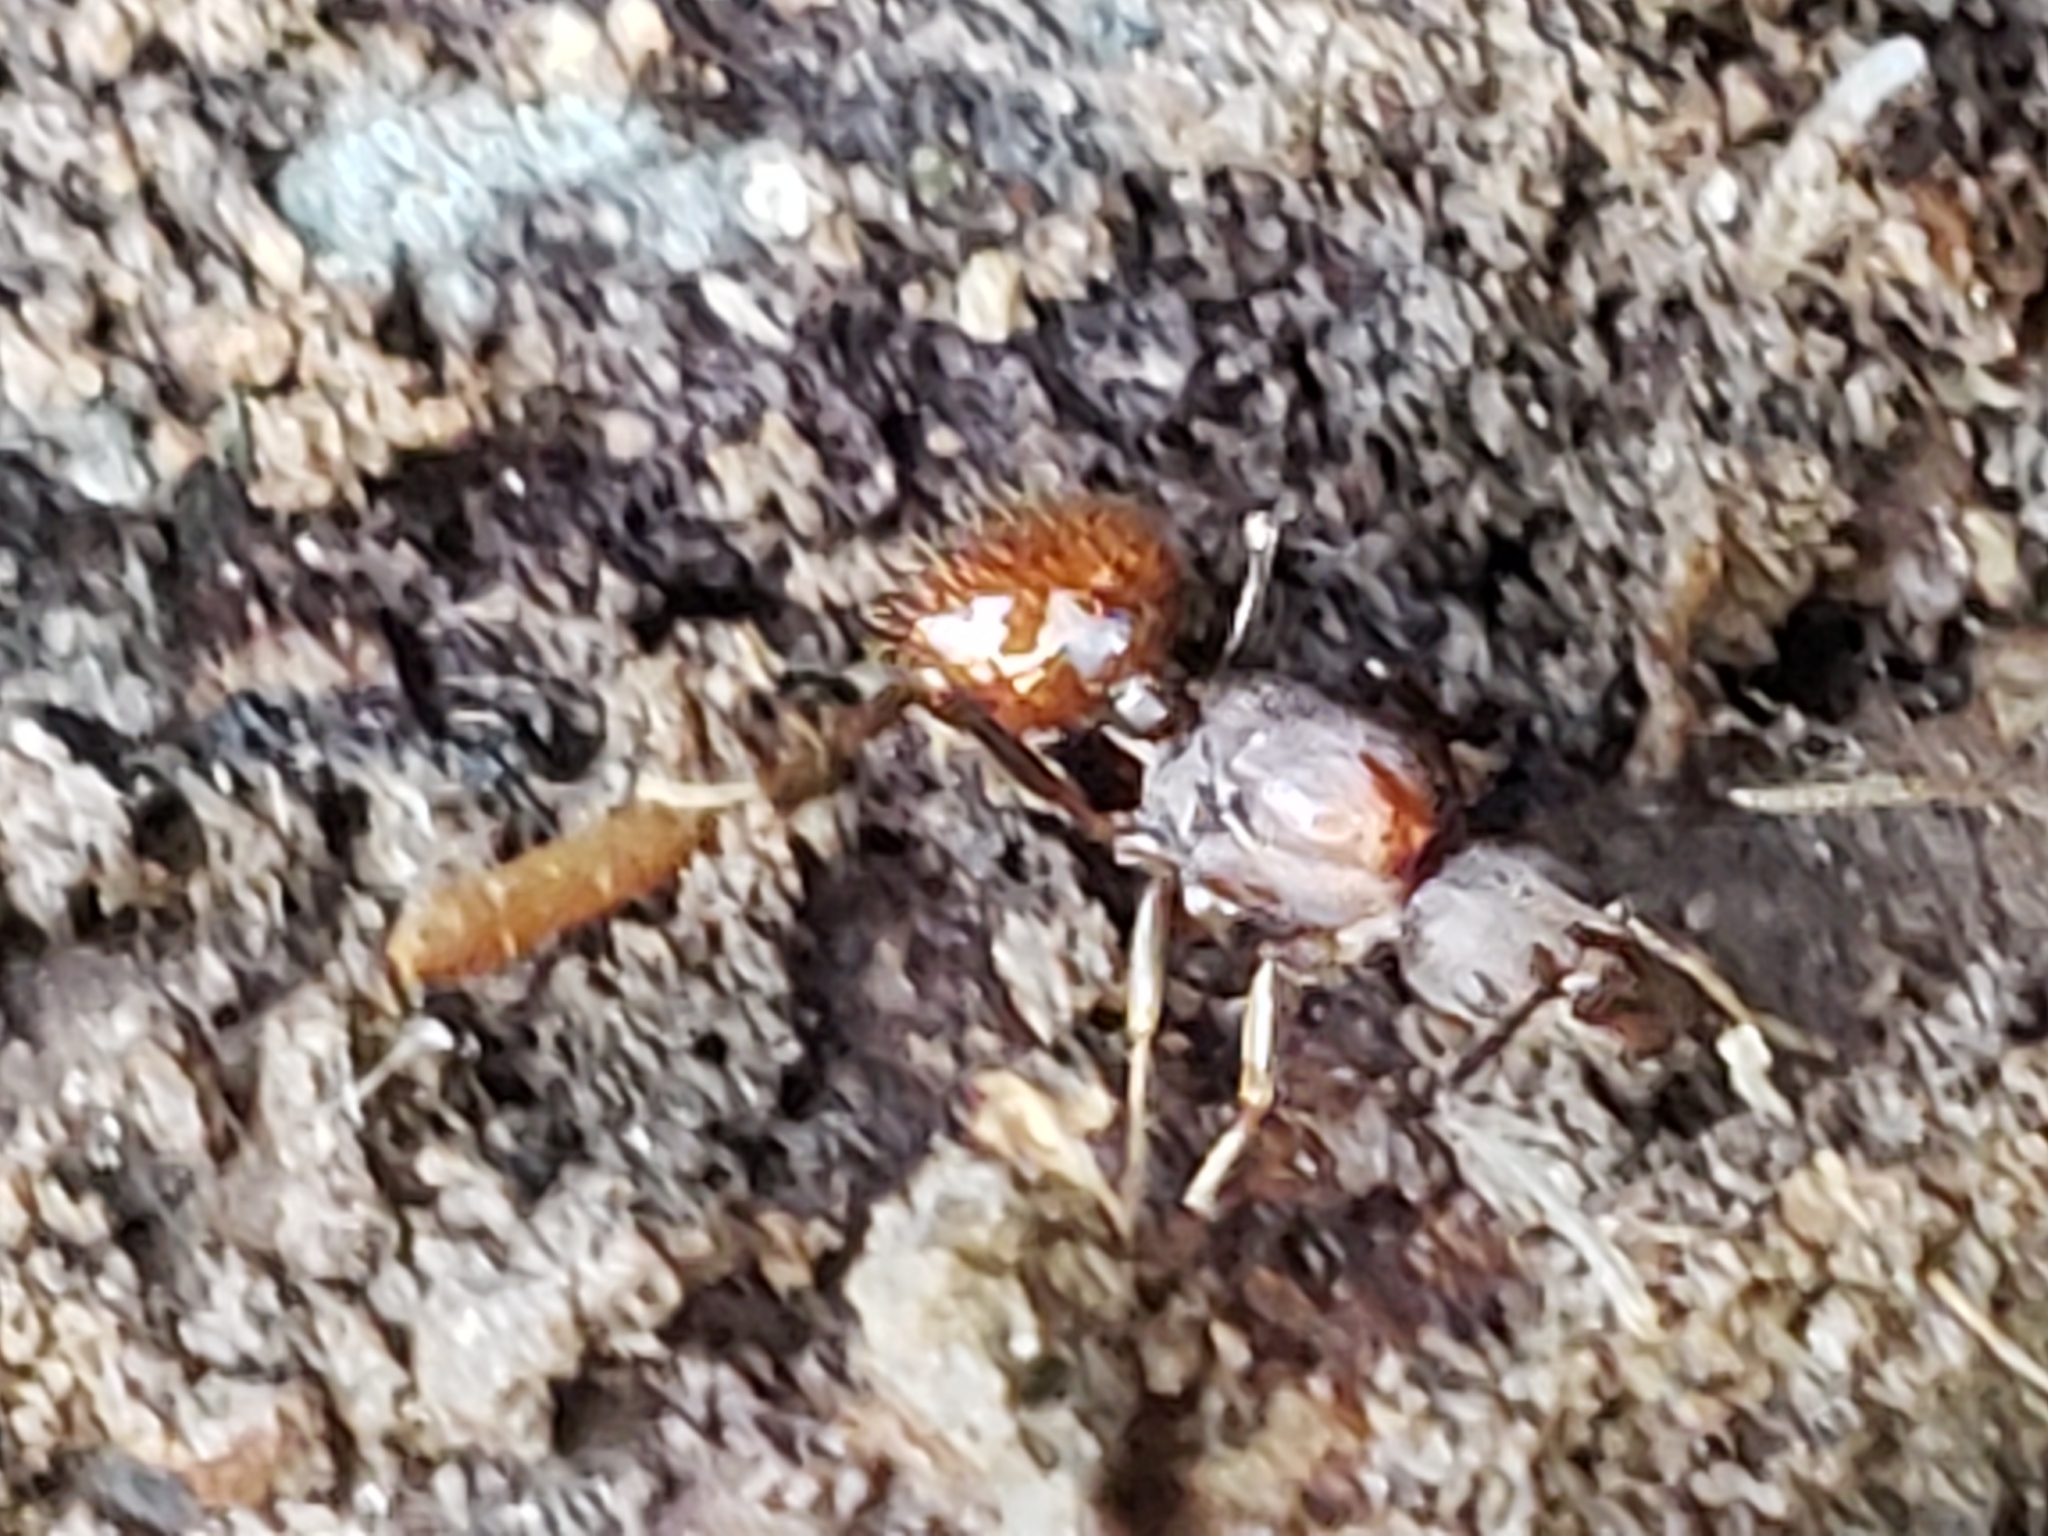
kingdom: Animalia
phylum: Arthropoda
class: Insecta
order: Hymenoptera
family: Formicidae
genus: Aphaenogaster
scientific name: Aphaenogaster fulva
